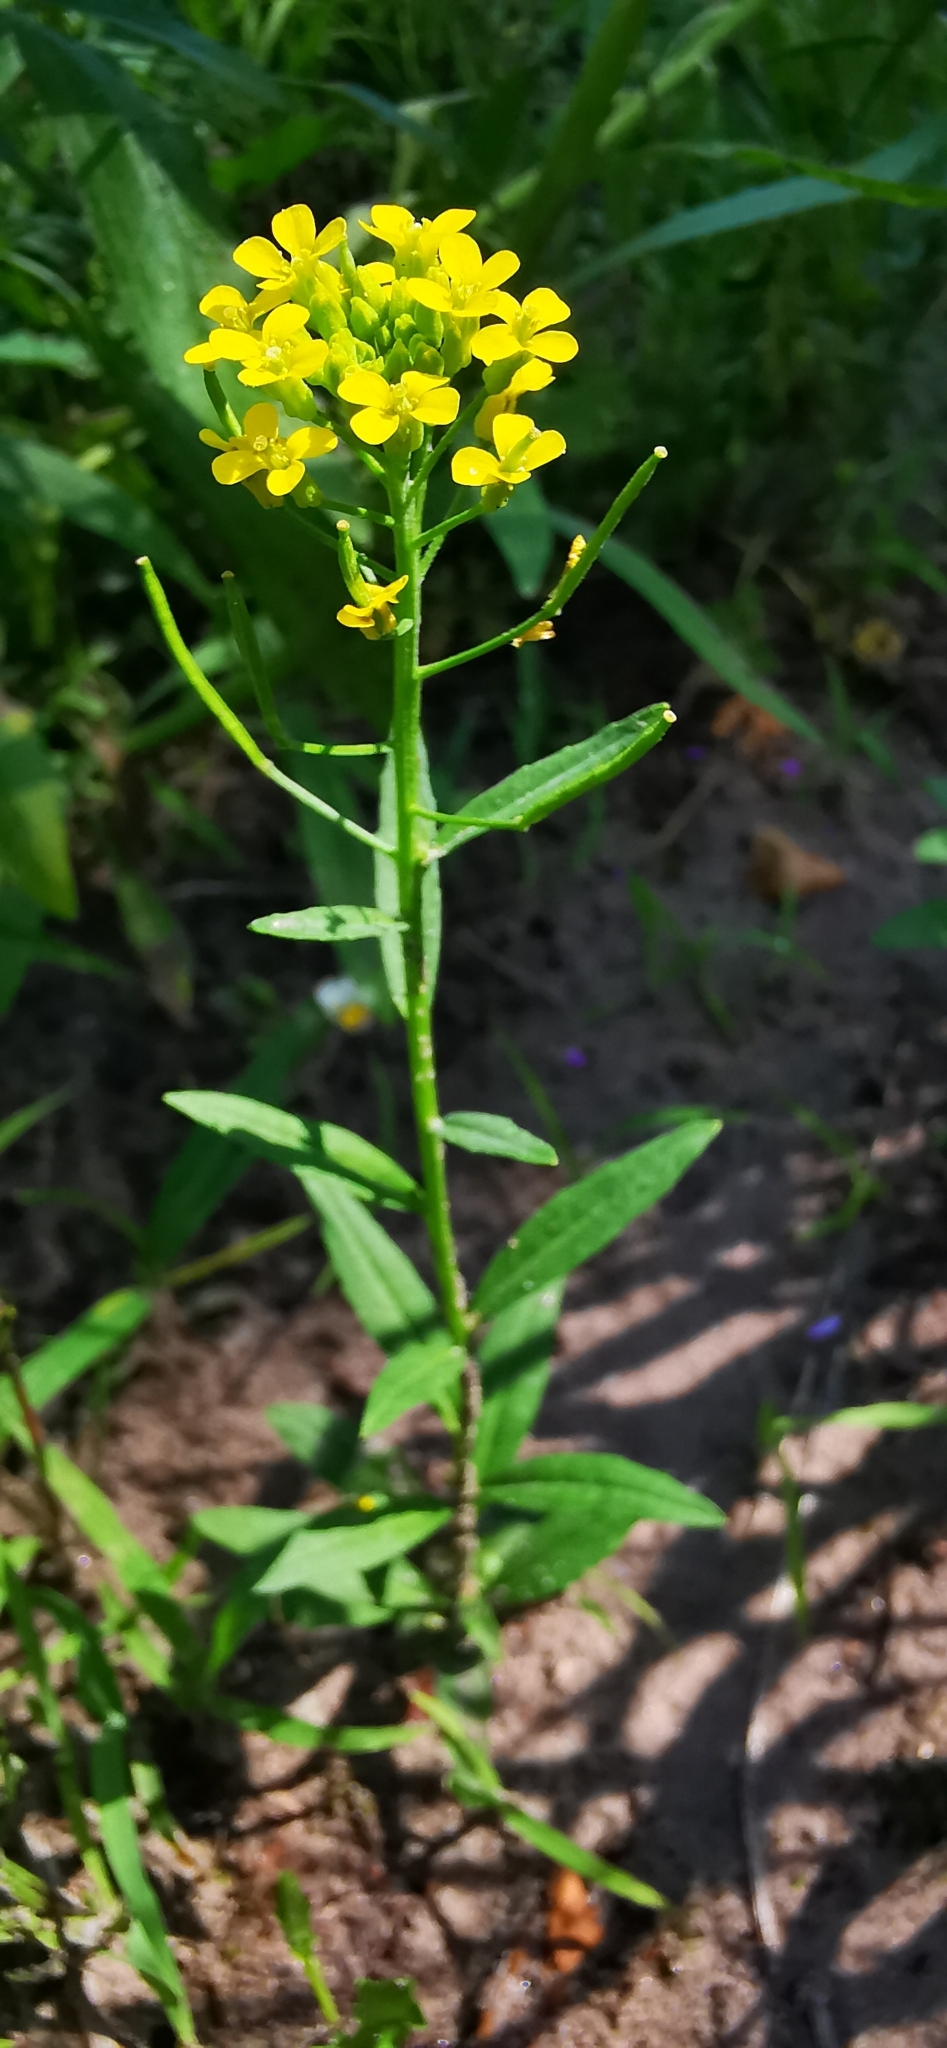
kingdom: Plantae
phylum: Tracheophyta
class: Magnoliopsida
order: Brassicales
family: Brassicaceae
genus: Erysimum
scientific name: Erysimum cheiranthoides
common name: Treacle mustard
